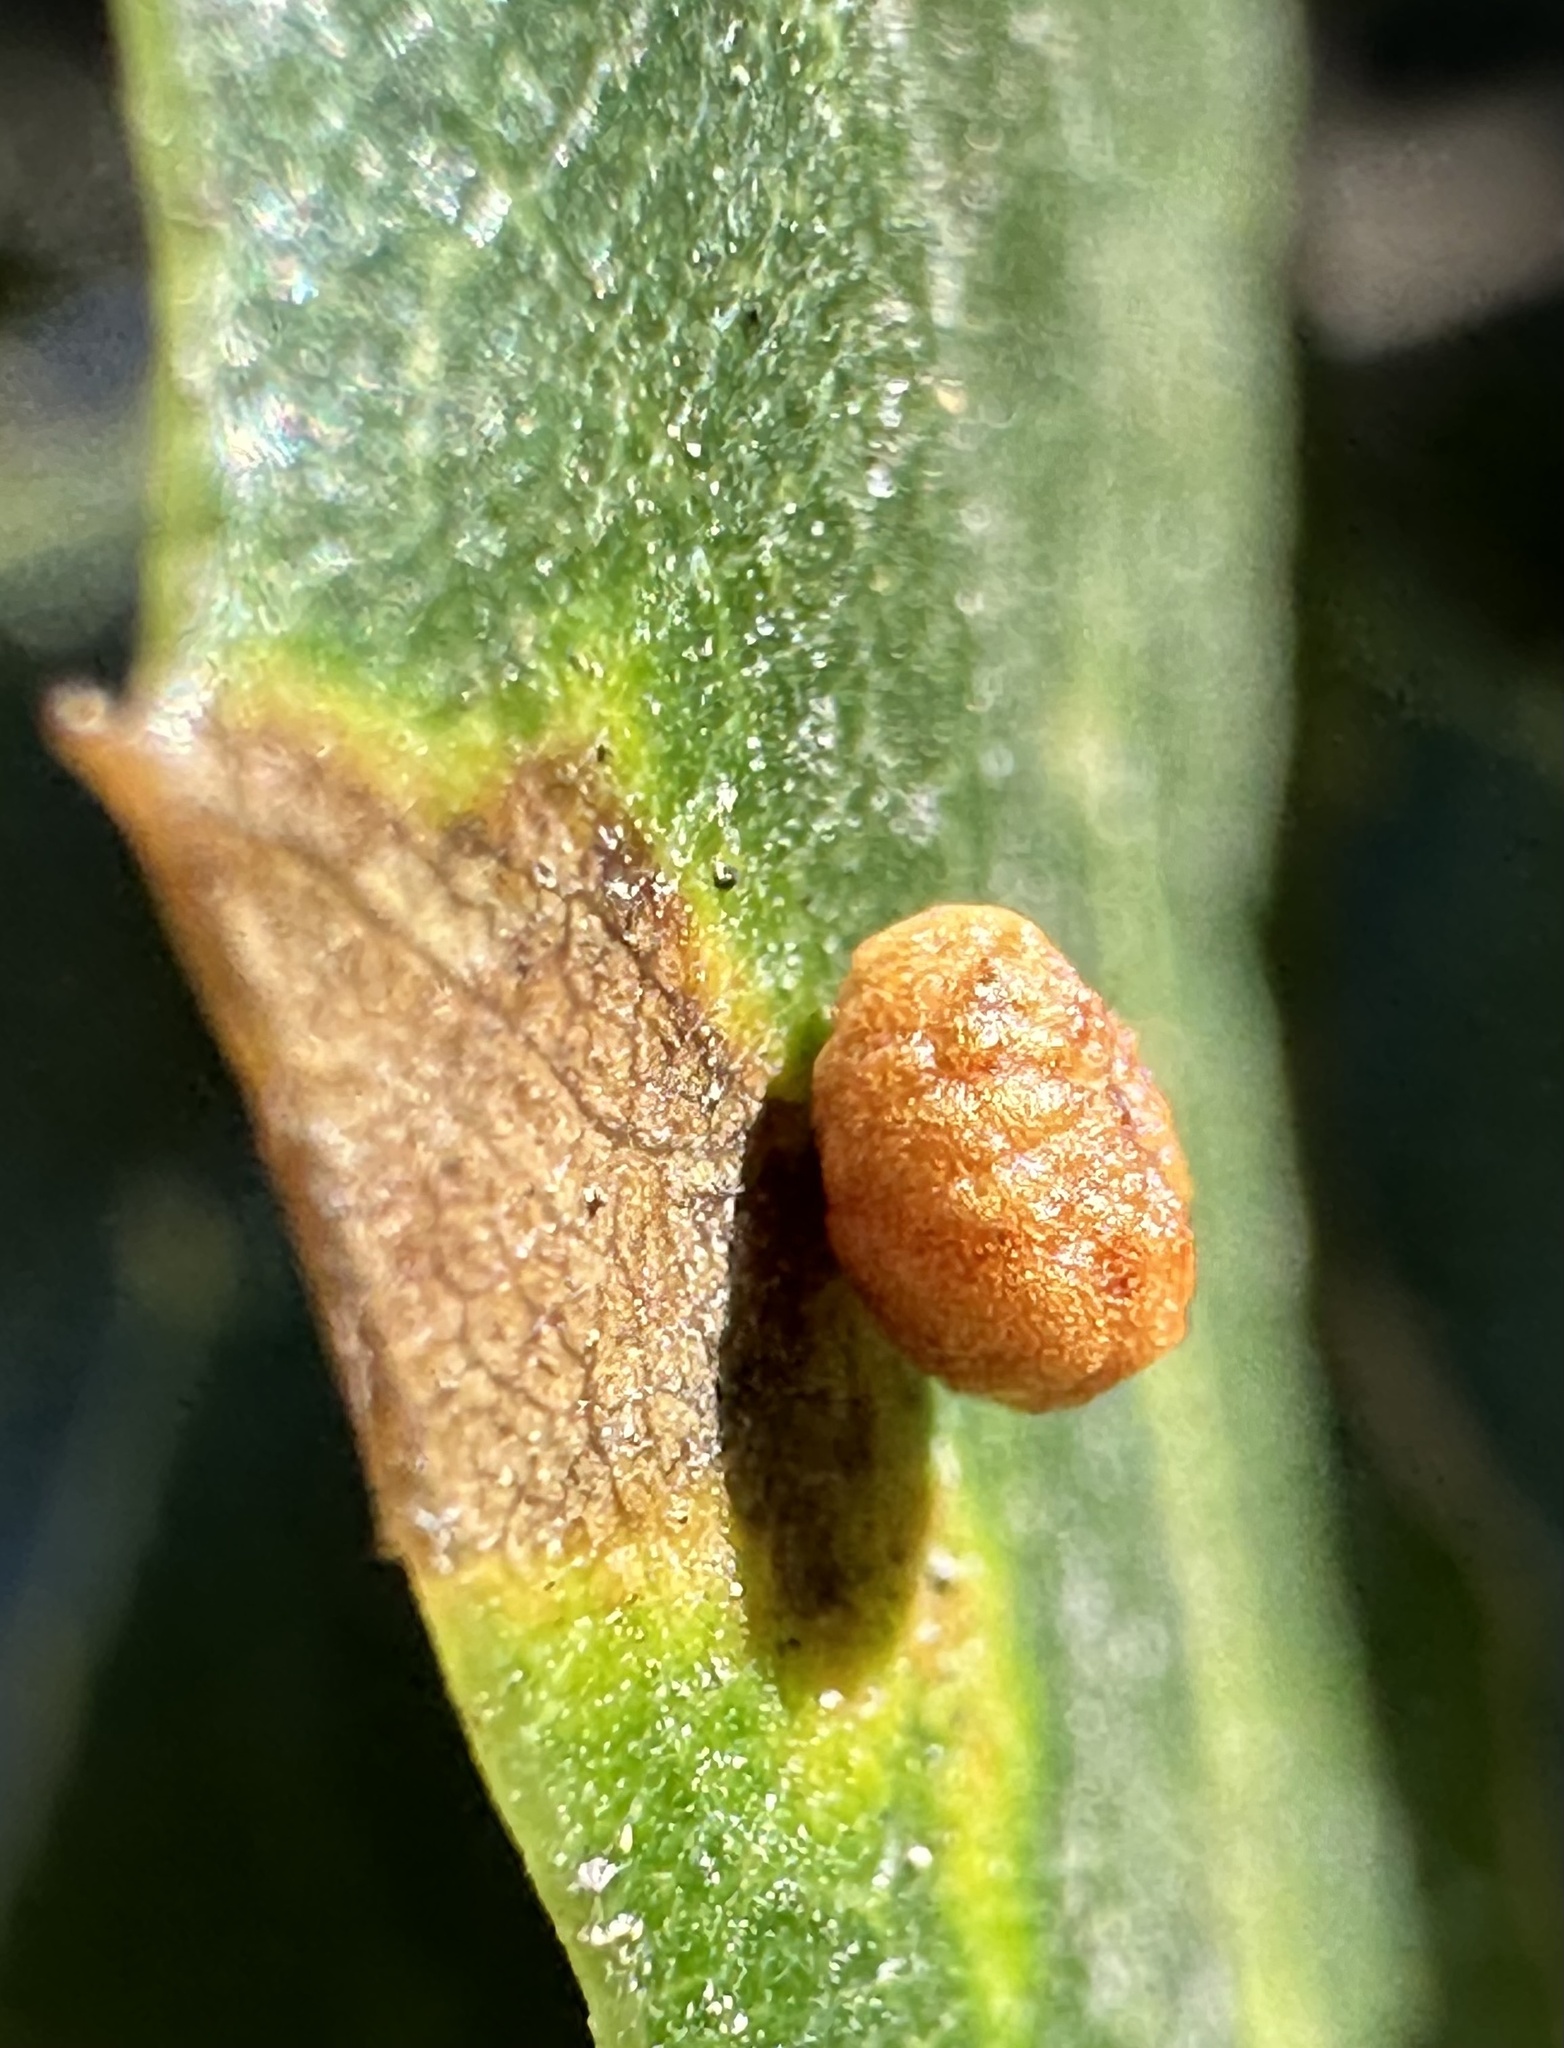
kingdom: Animalia
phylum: Arthropoda
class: Insecta
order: Hymenoptera
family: Cynipidae
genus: Dryocosmus
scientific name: Dryocosmus
